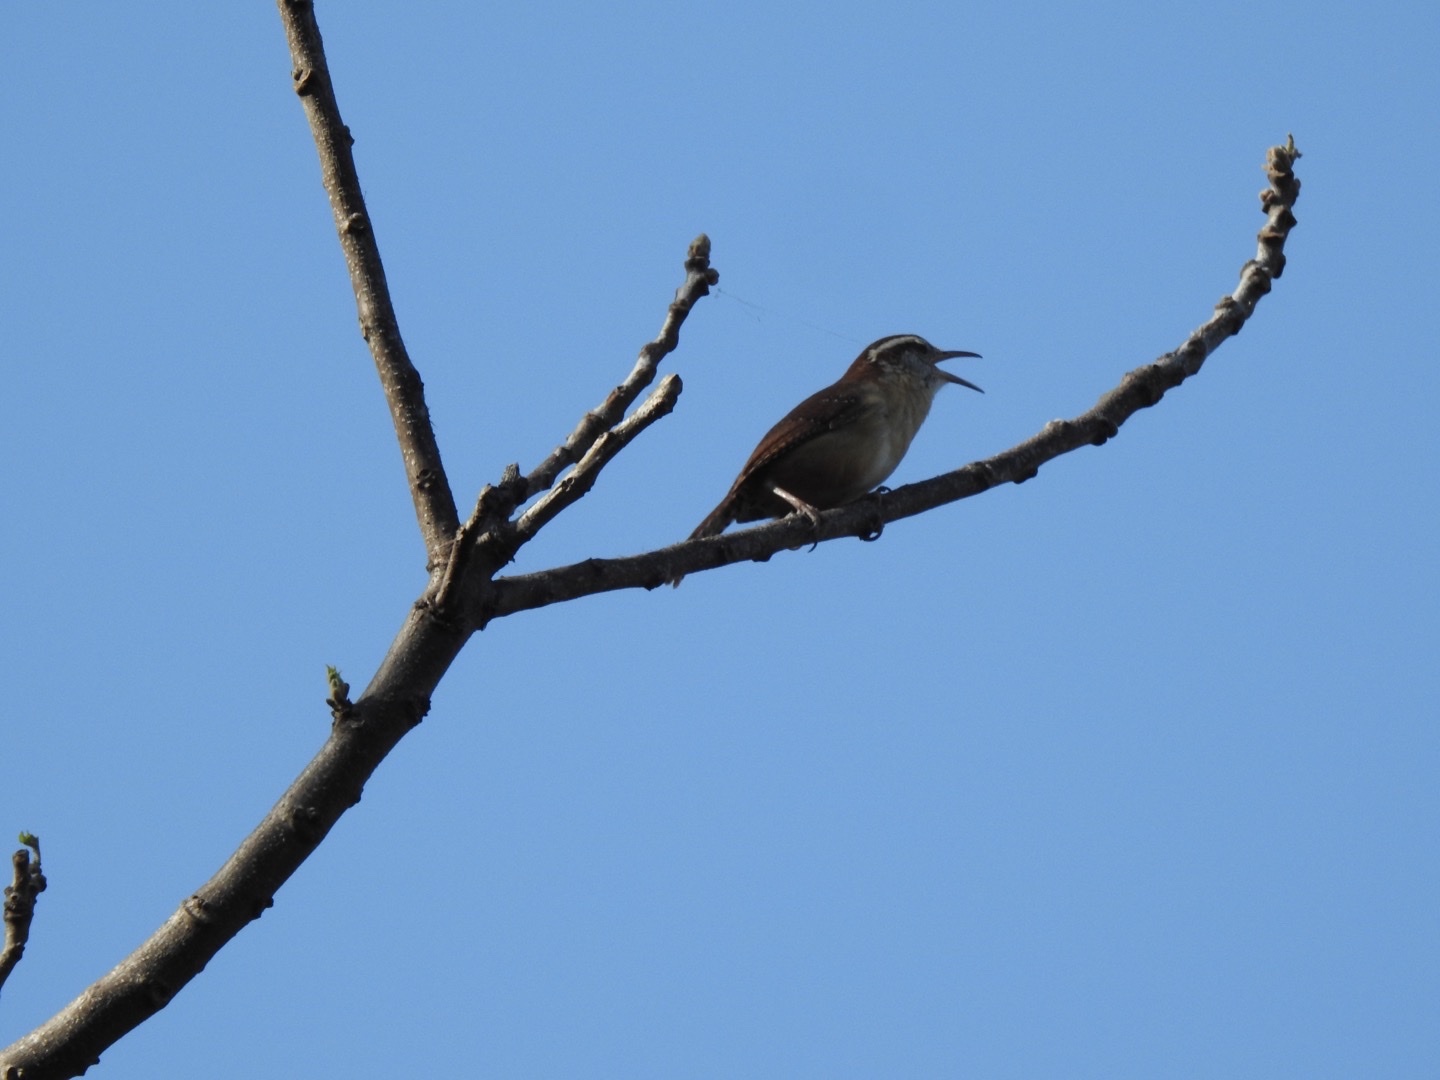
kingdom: Animalia
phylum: Chordata
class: Aves
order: Passeriformes
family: Troglodytidae
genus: Thryothorus
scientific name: Thryothorus ludovicianus
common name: Carolina wren
